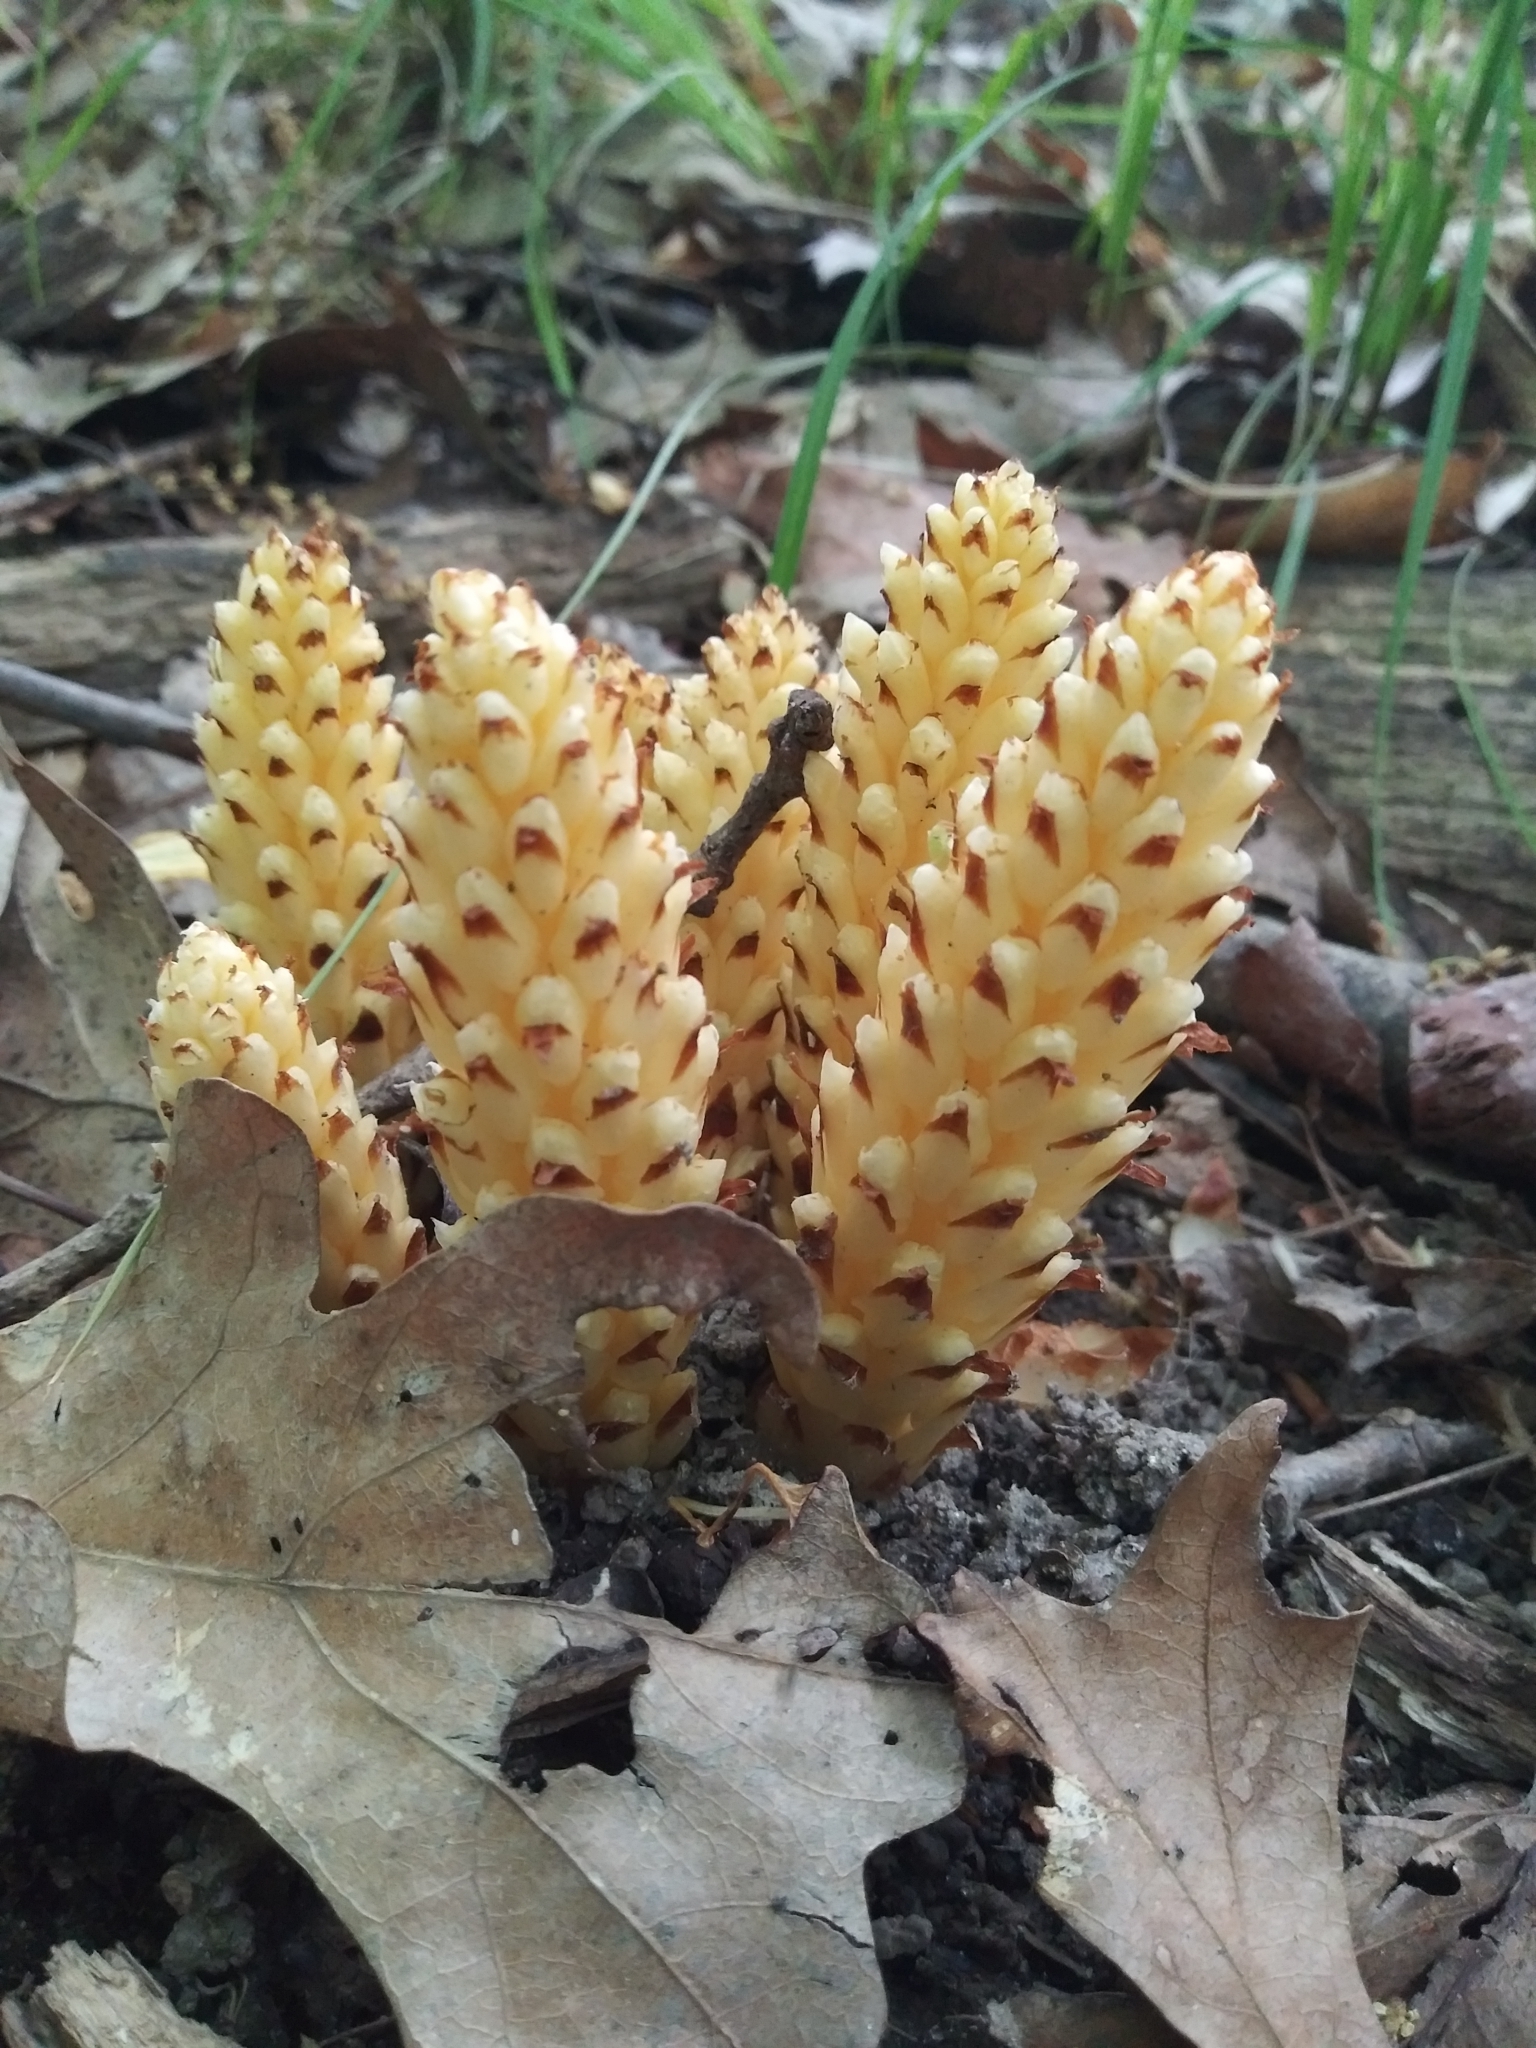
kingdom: Plantae
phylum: Tracheophyta
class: Magnoliopsida
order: Lamiales
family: Orobanchaceae
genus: Conopholis
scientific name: Conopholis americana
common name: American cancer-root
